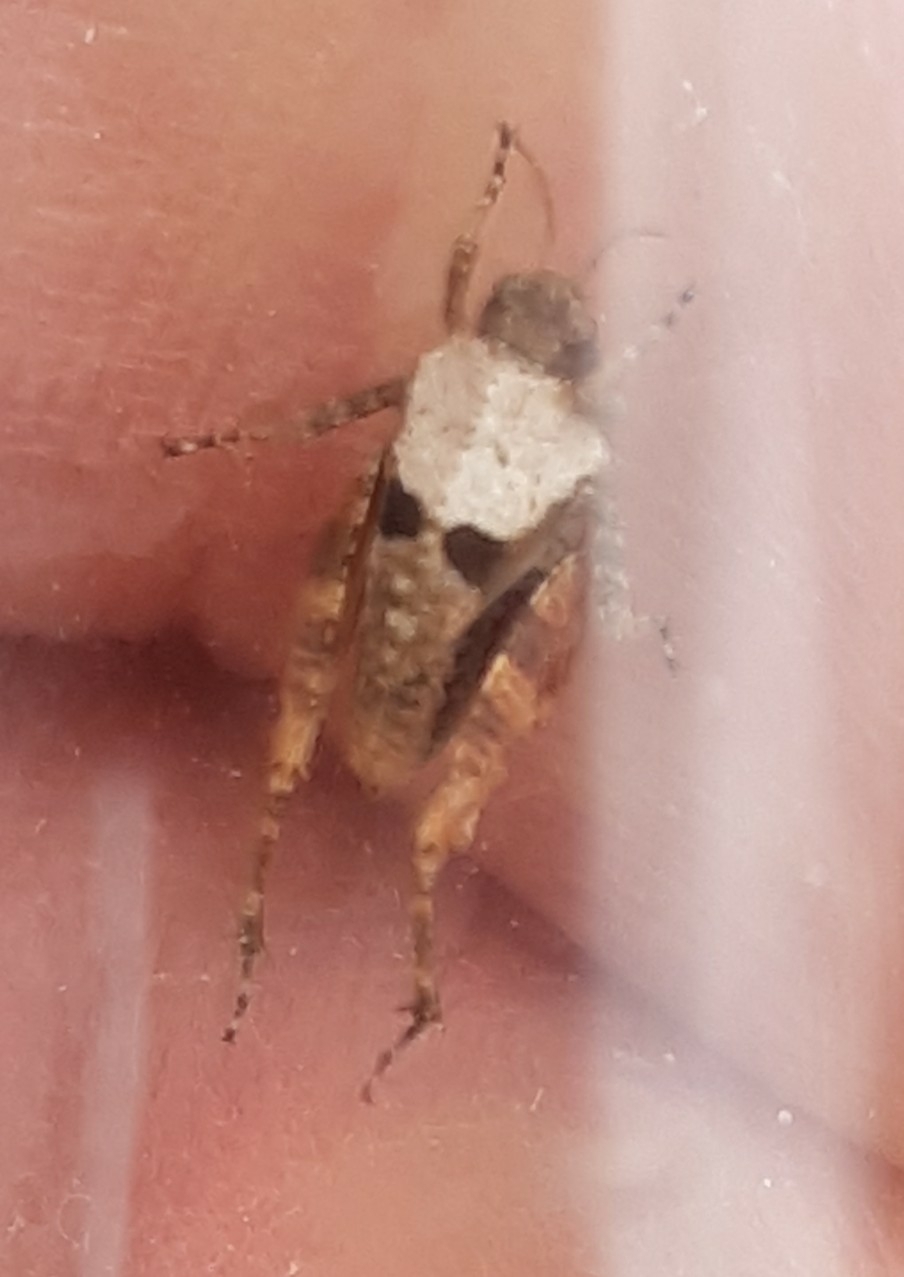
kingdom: Animalia
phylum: Arthropoda
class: Insecta
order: Orthoptera
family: Tetrigidae
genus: Tetrix
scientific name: Tetrix tenuicornis
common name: Long-horned groundhopper
